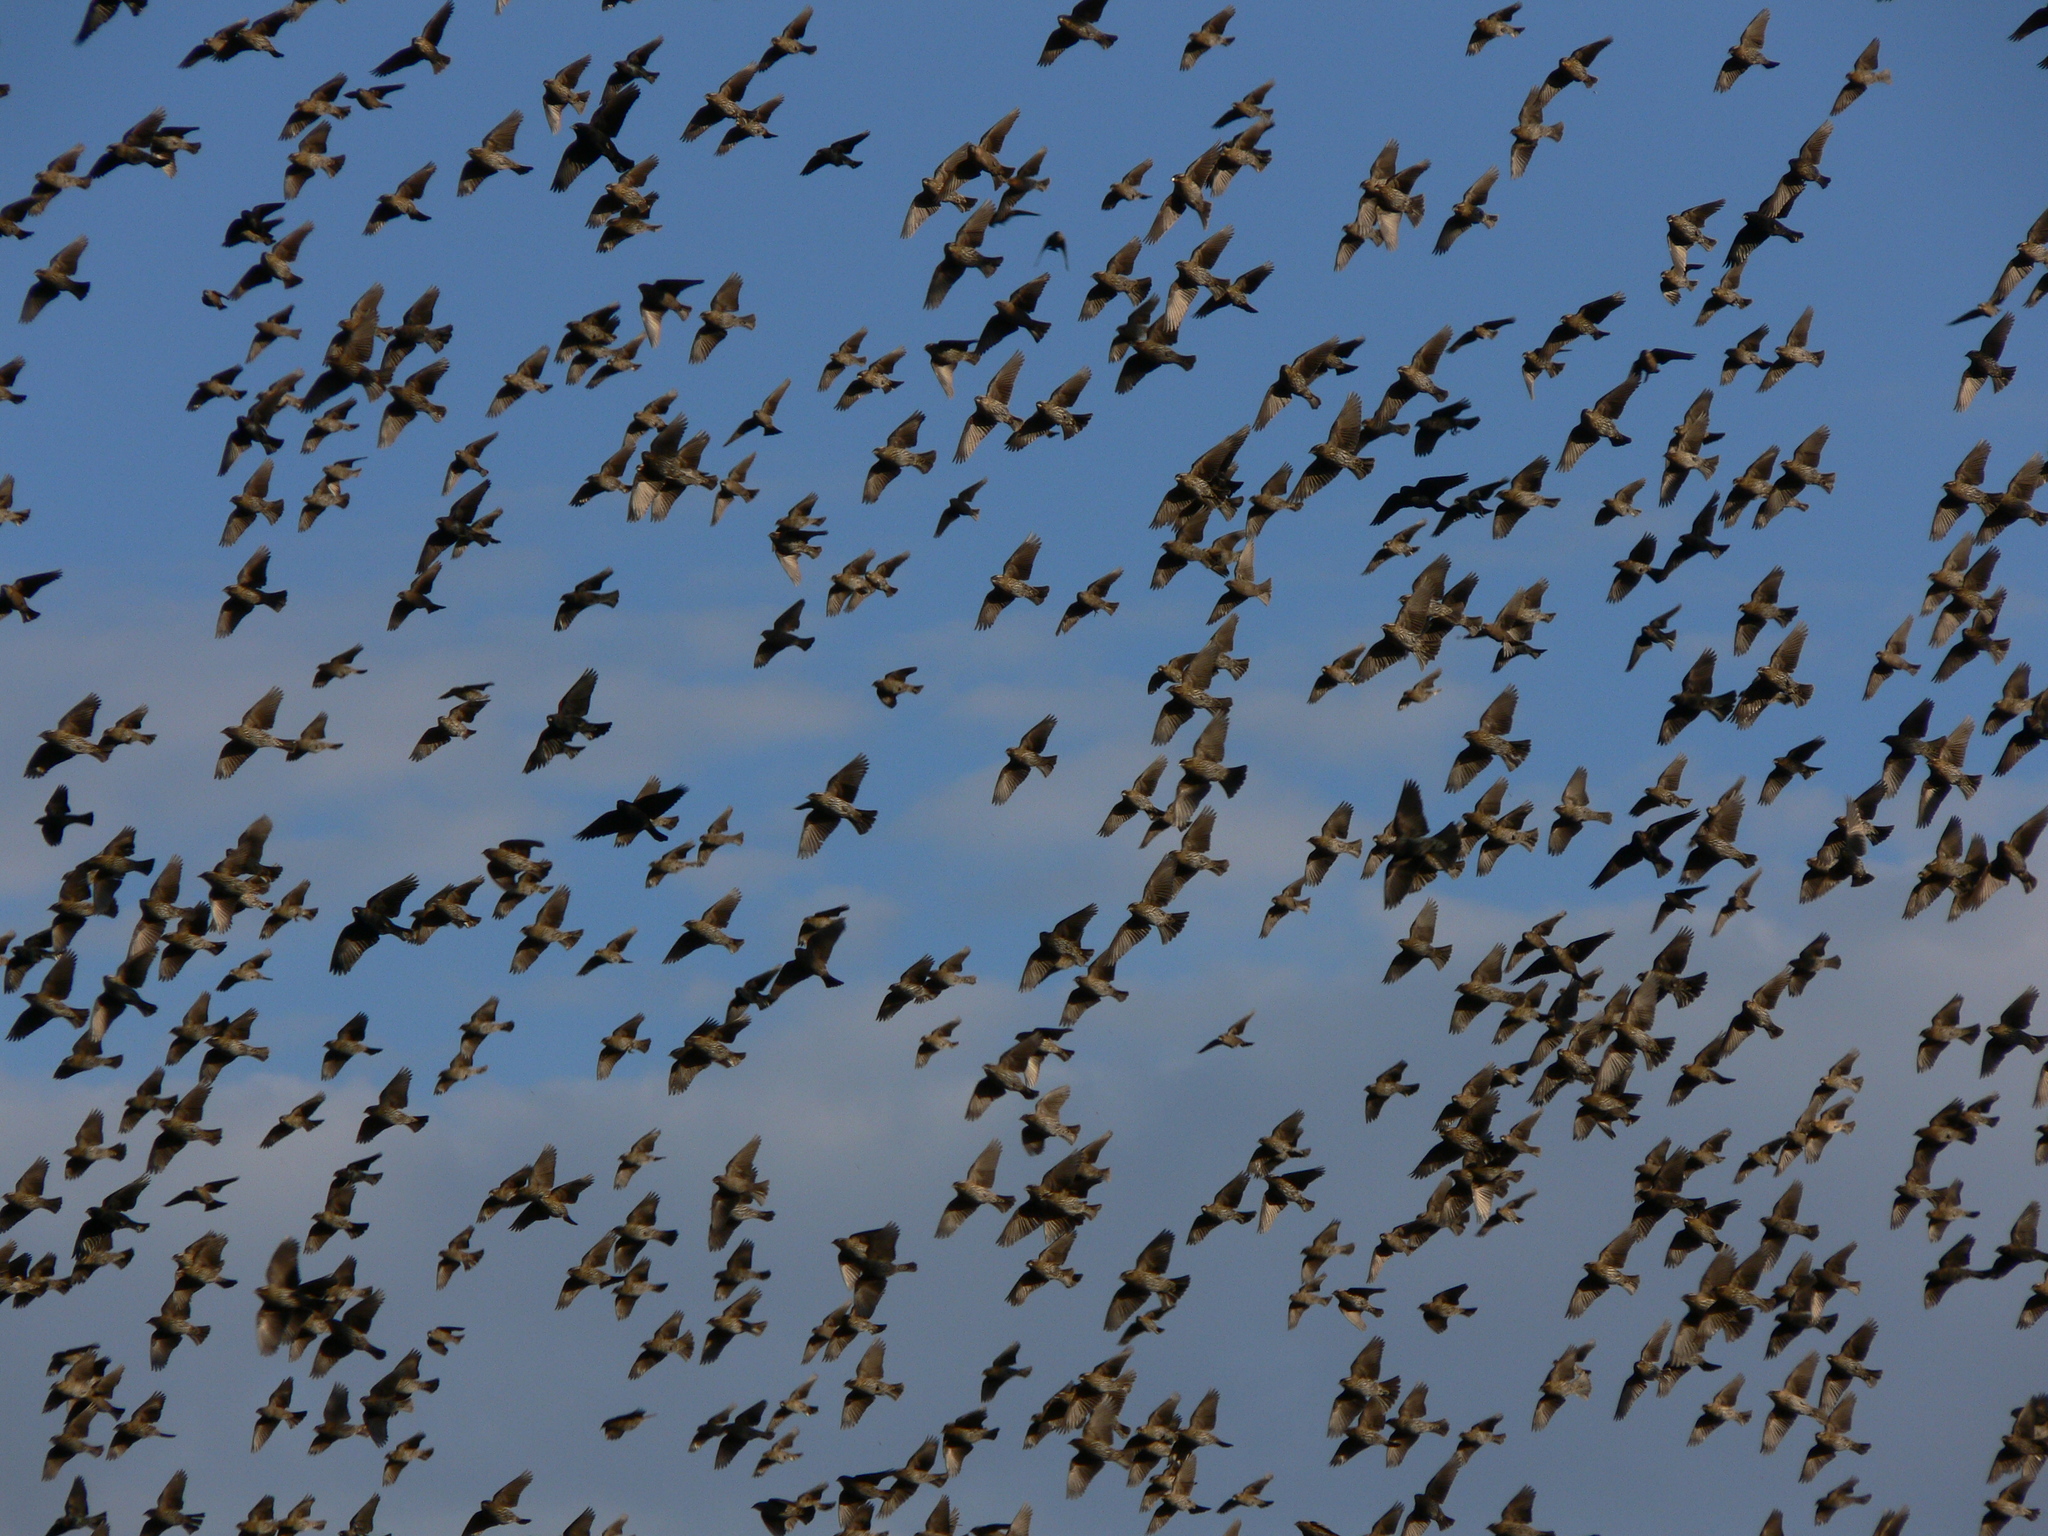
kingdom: Animalia
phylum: Chordata
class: Aves
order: Passeriformes
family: Icteridae
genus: Agelaius
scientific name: Agelaius phoeniceus
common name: Red-winged blackbird
